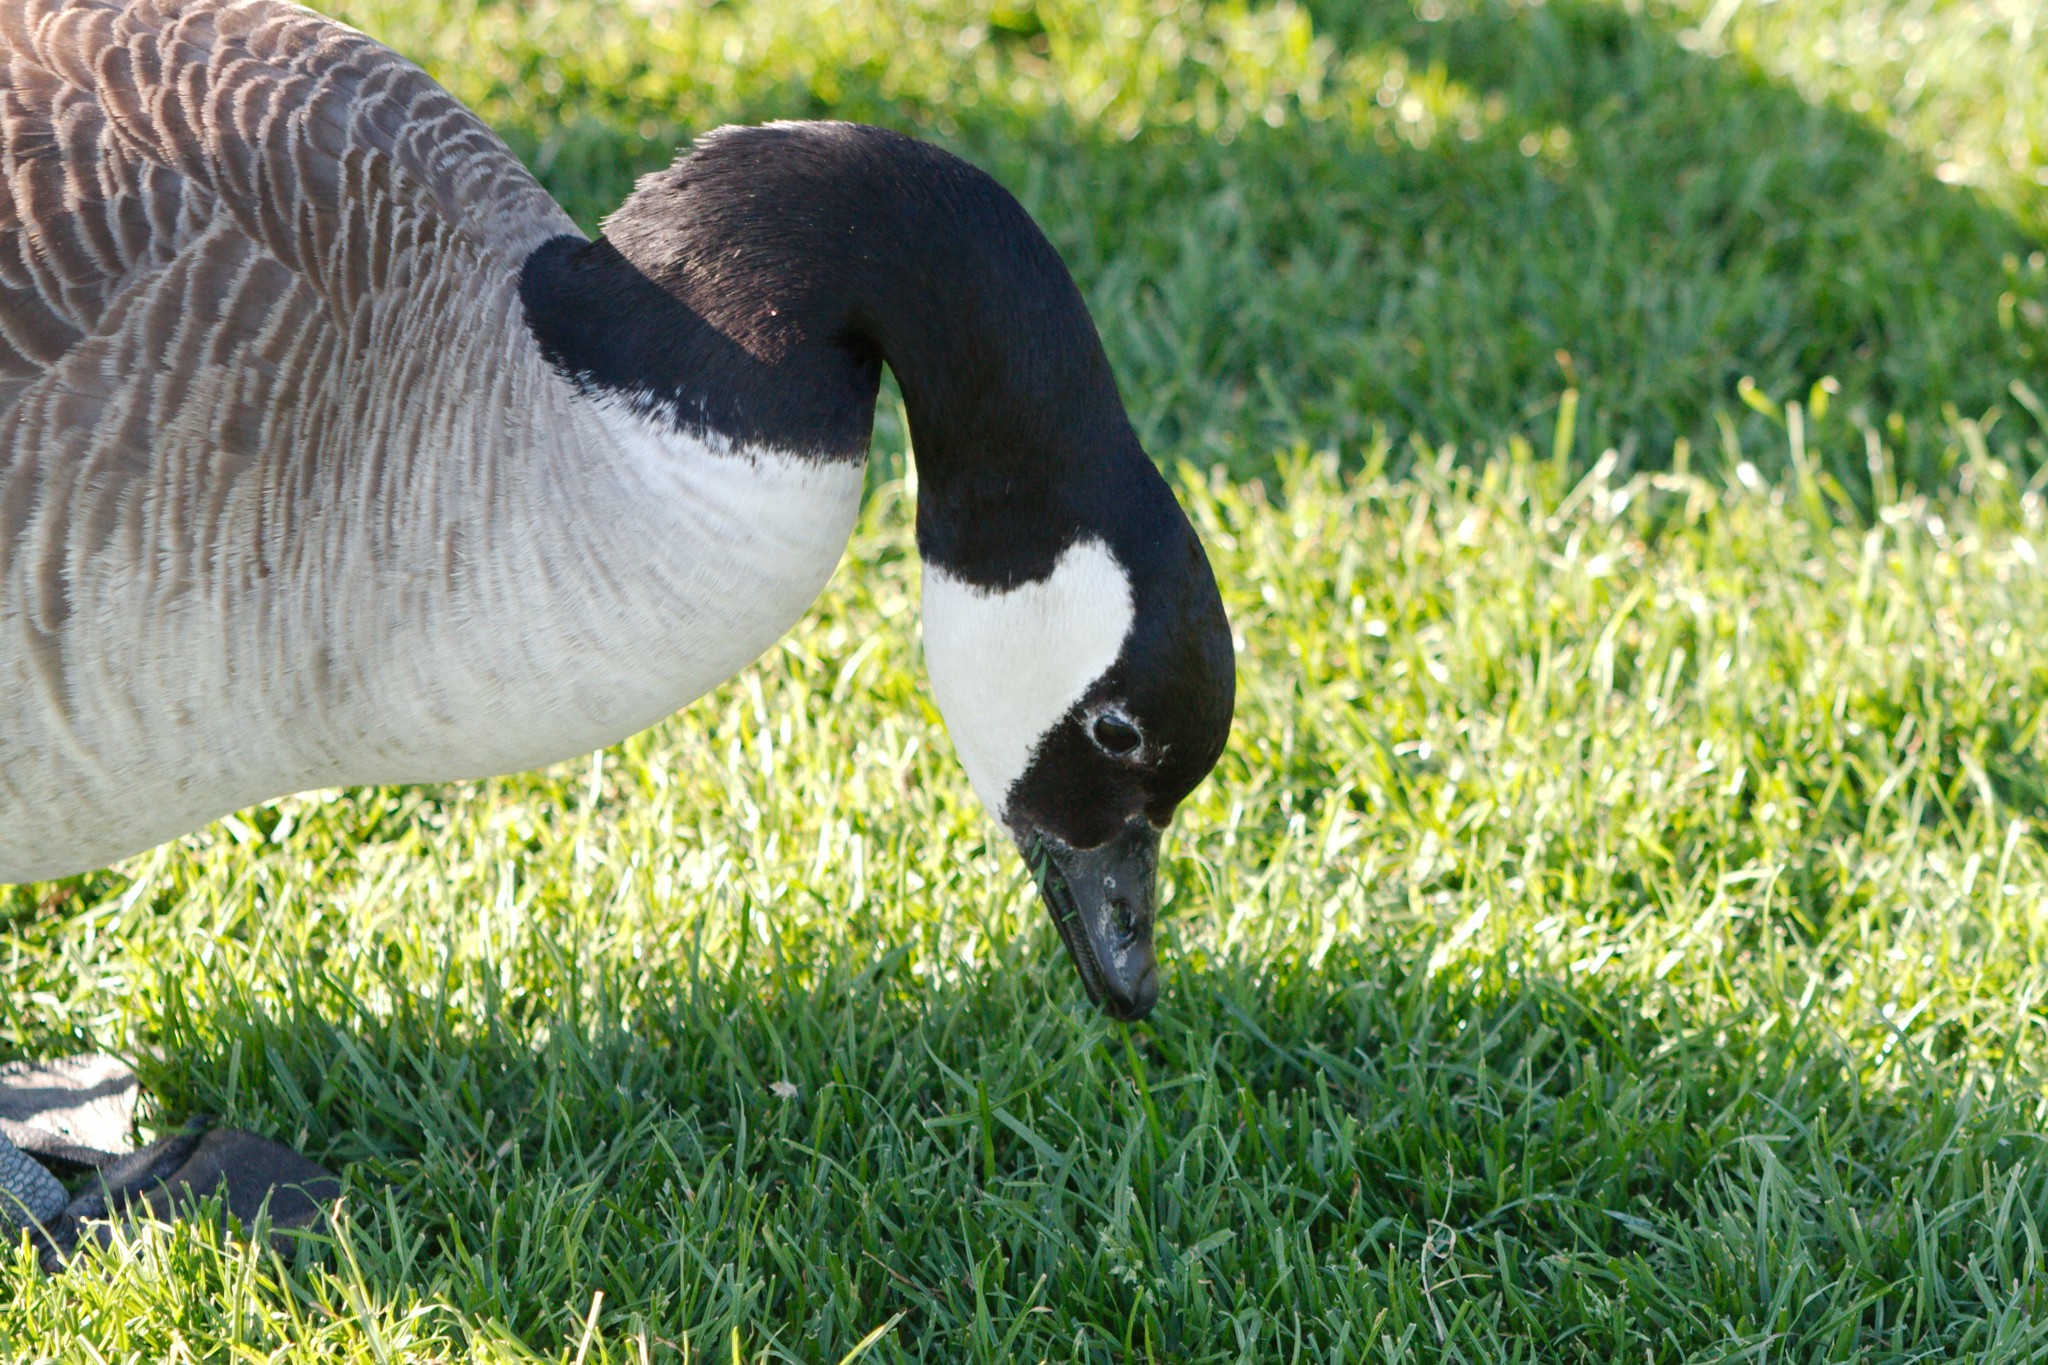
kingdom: Animalia
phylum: Chordata
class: Aves
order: Anseriformes
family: Anatidae
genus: Branta
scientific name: Branta canadensis
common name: Canada goose
